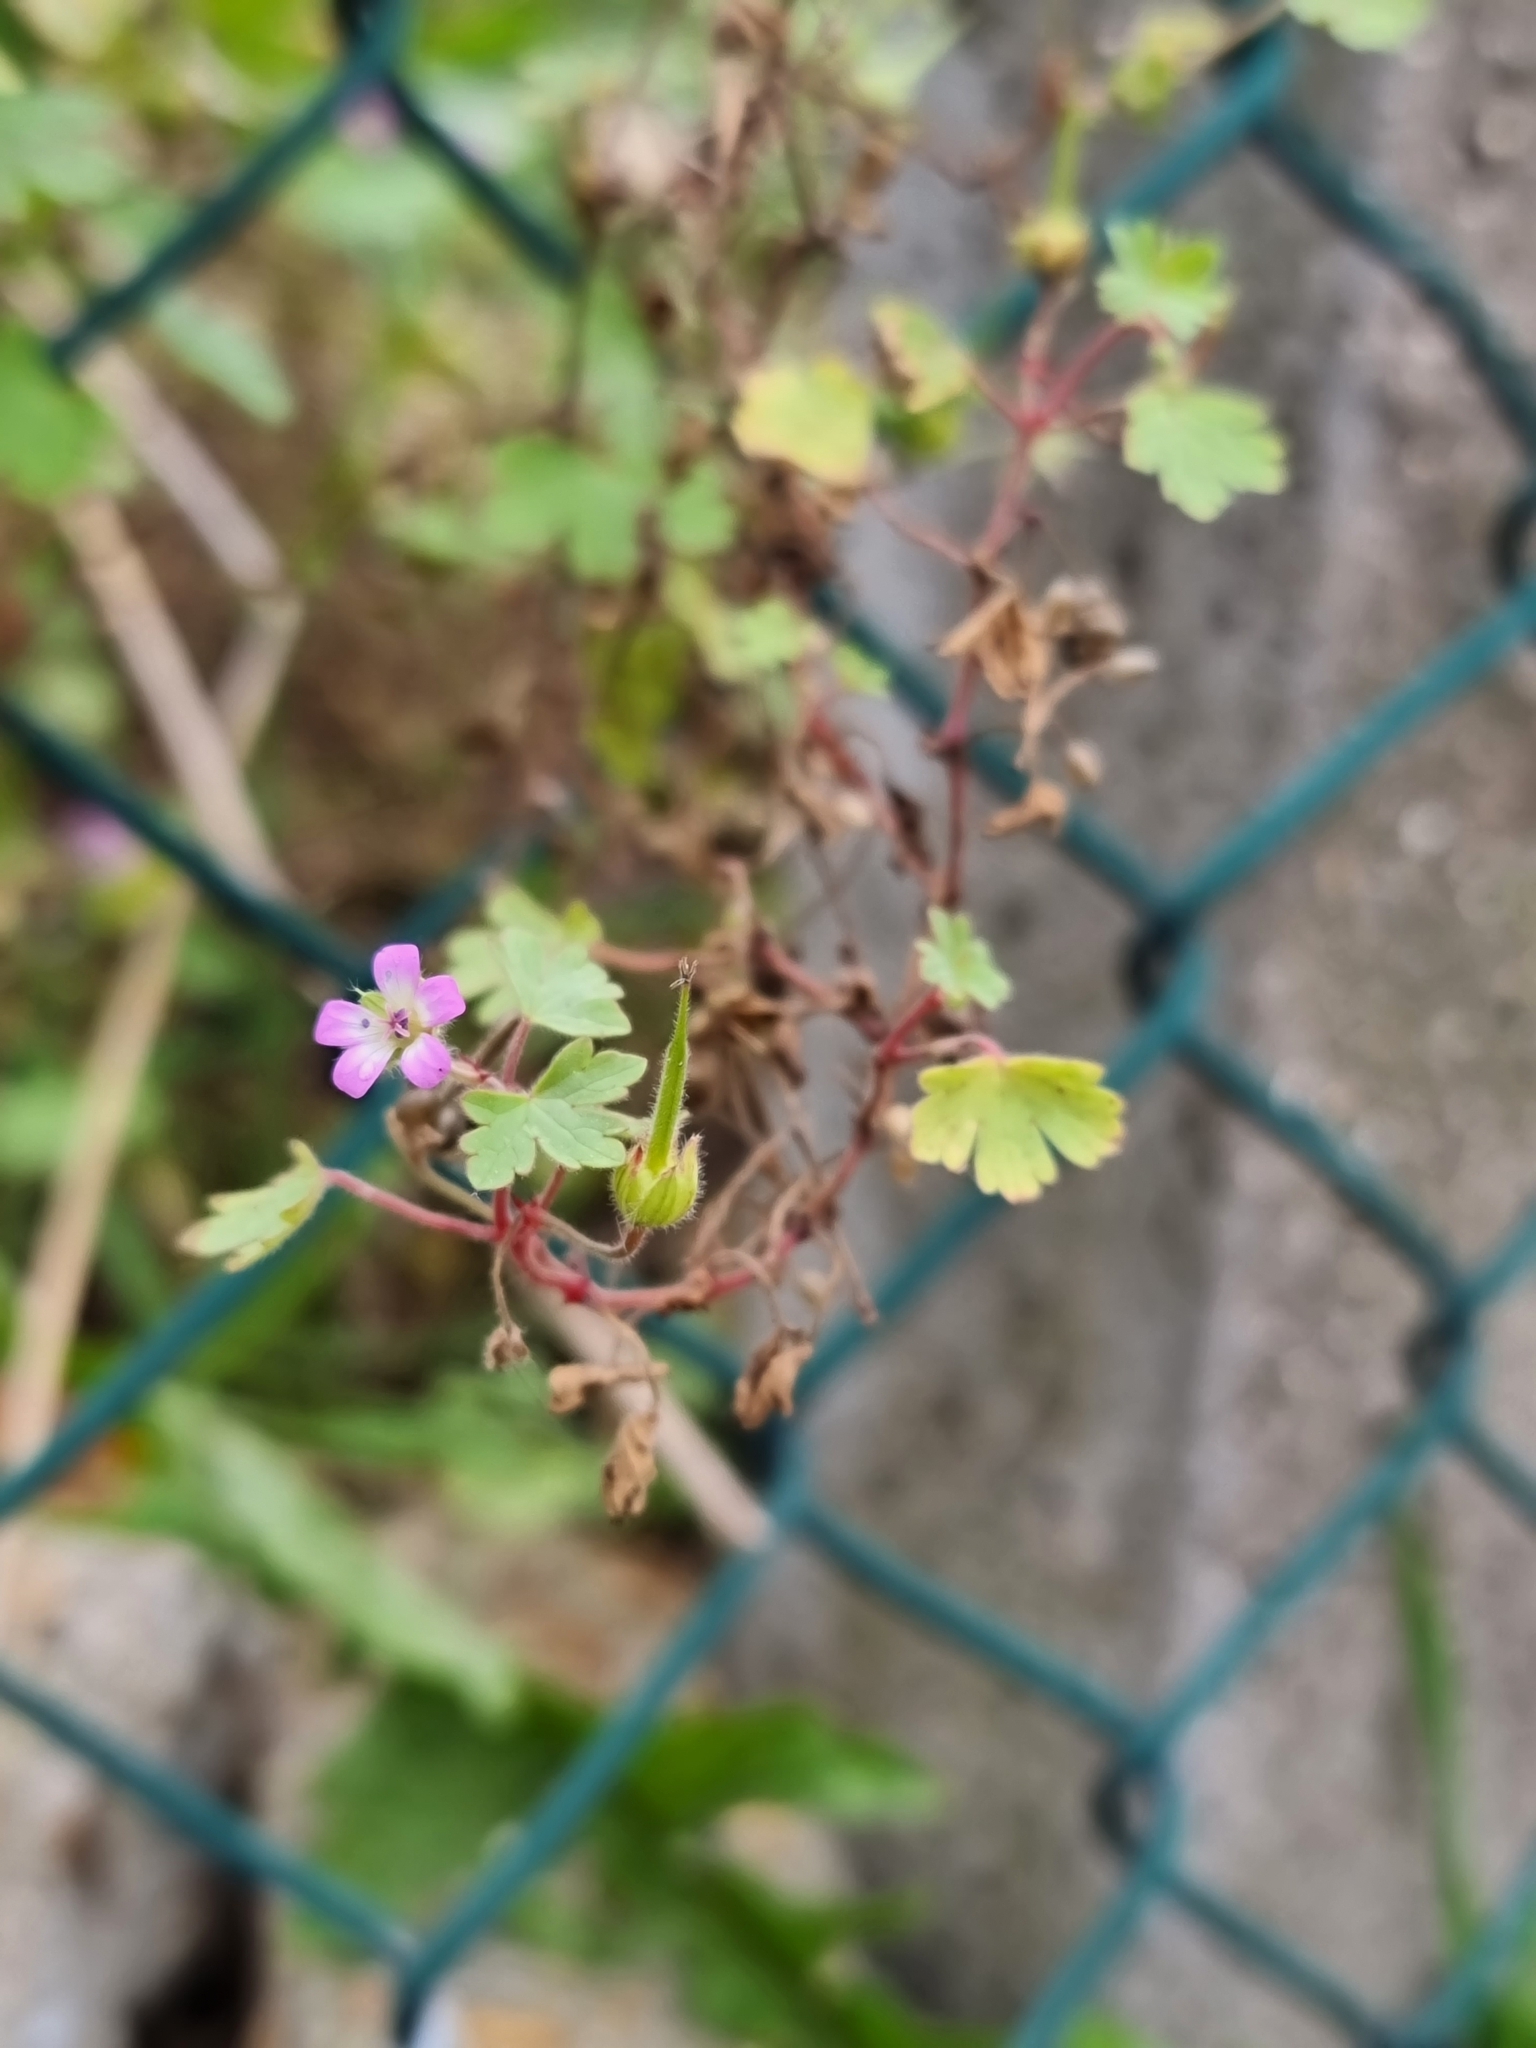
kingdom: Plantae
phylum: Tracheophyta
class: Magnoliopsida
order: Geraniales
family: Geraniaceae
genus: Geranium
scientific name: Geranium rotundifolium
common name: Round-leaved crane's-bill
